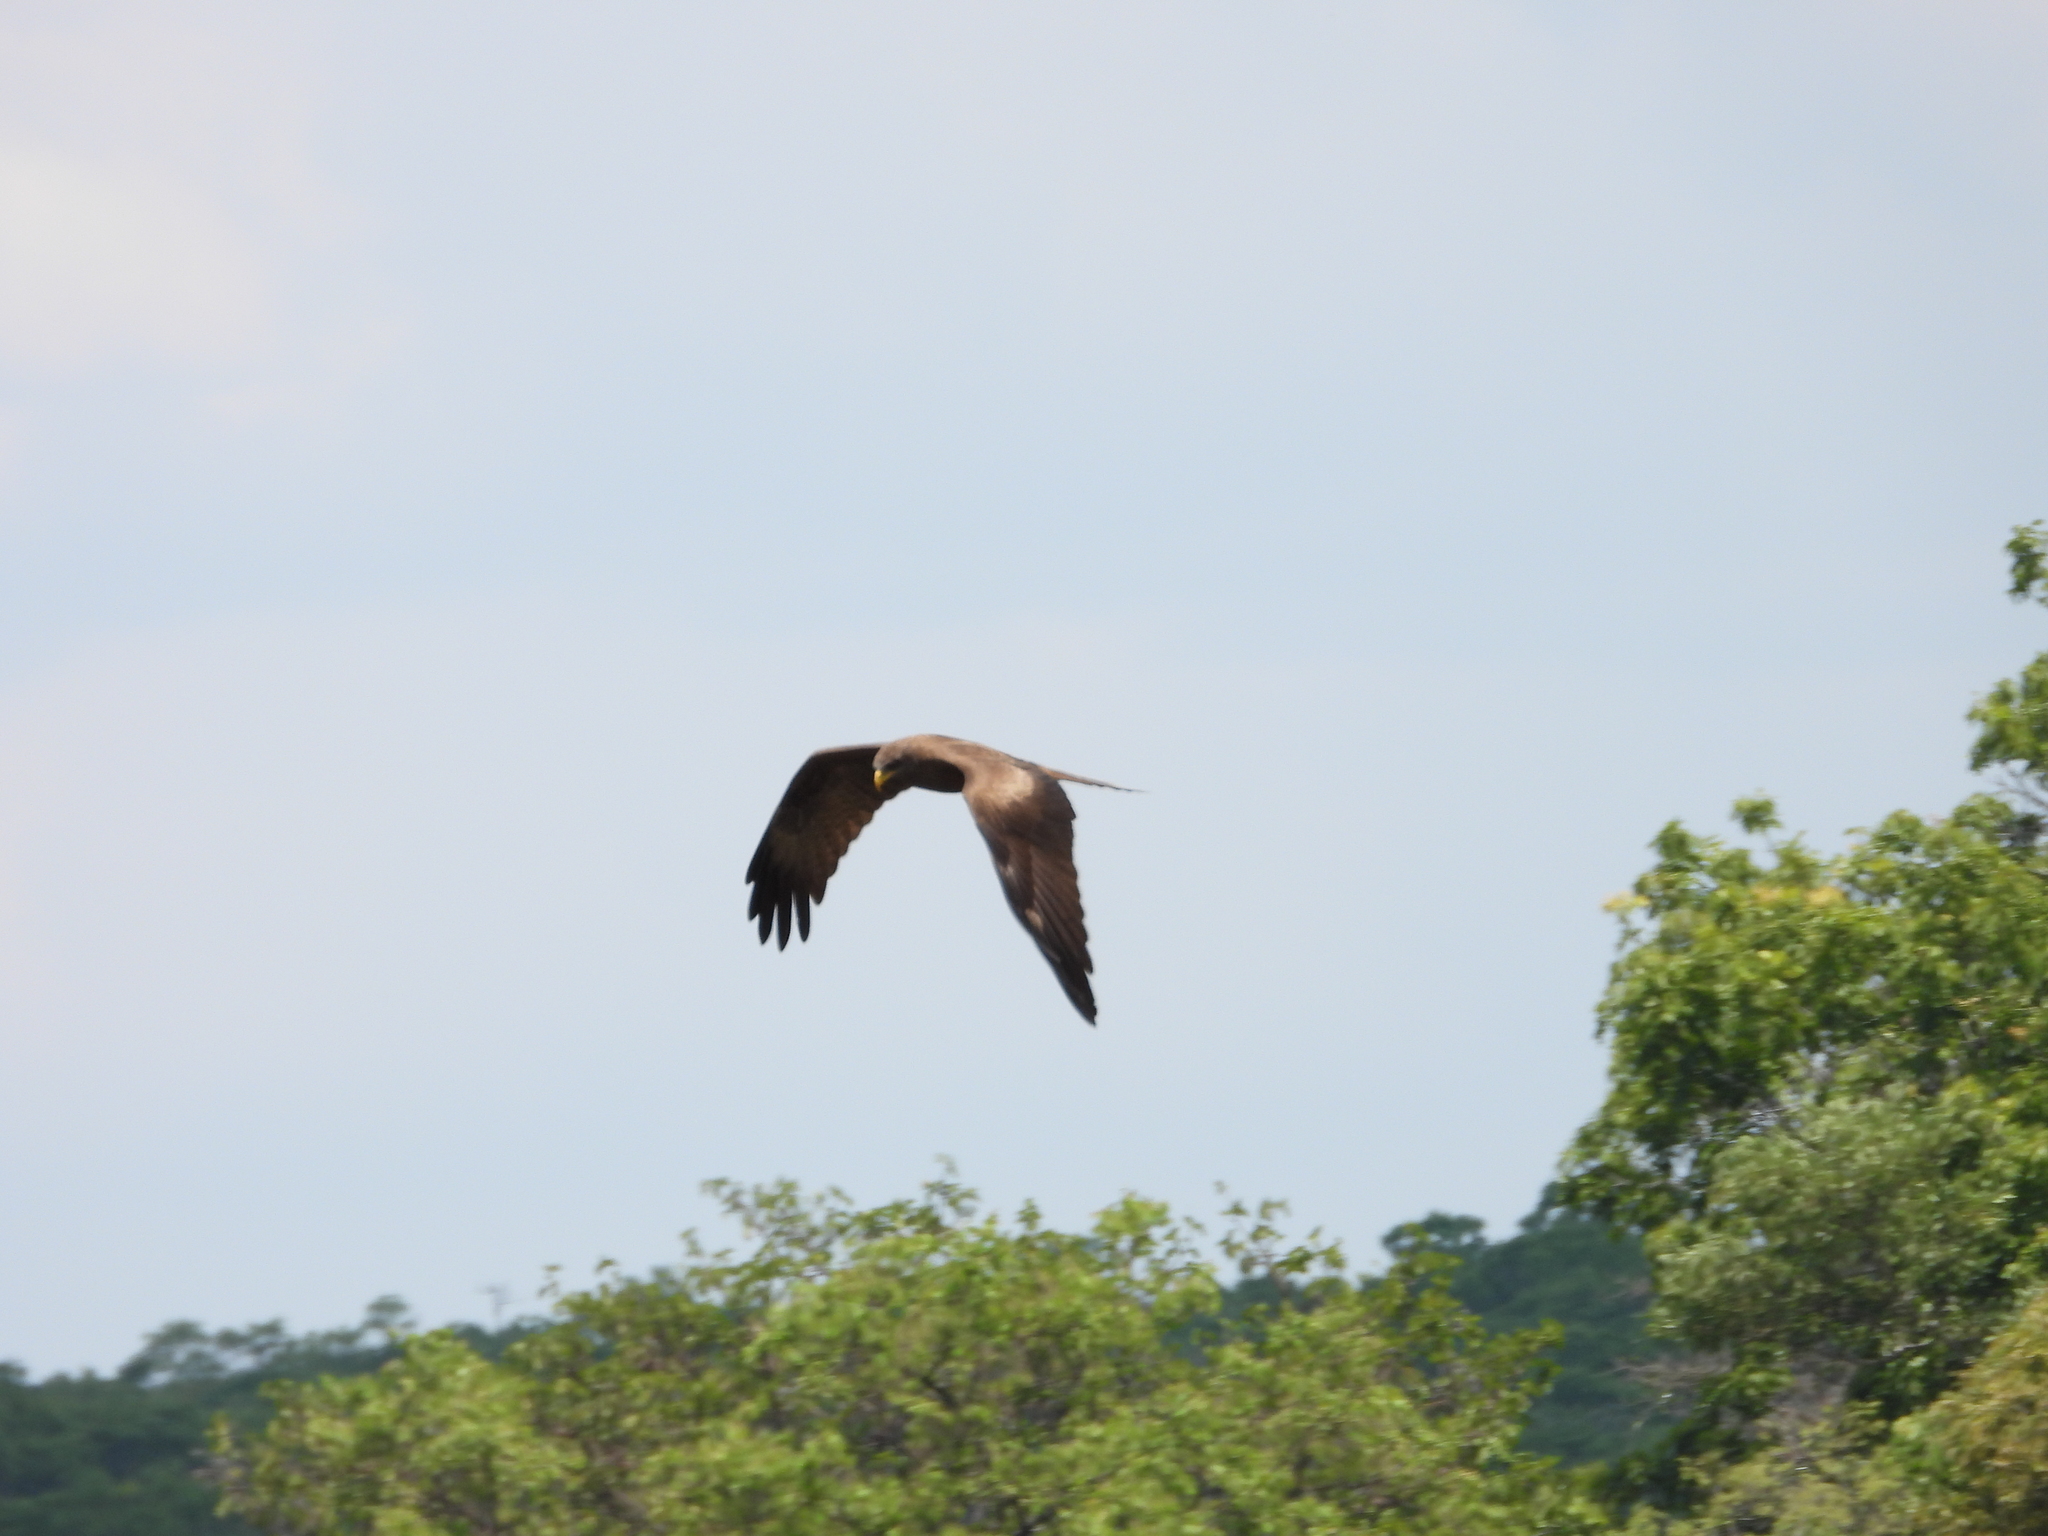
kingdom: Animalia
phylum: Chordata
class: Aves
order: Accipitriformes
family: Accipitridae
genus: Milvus
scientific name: Milvus migrans
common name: Black kite
